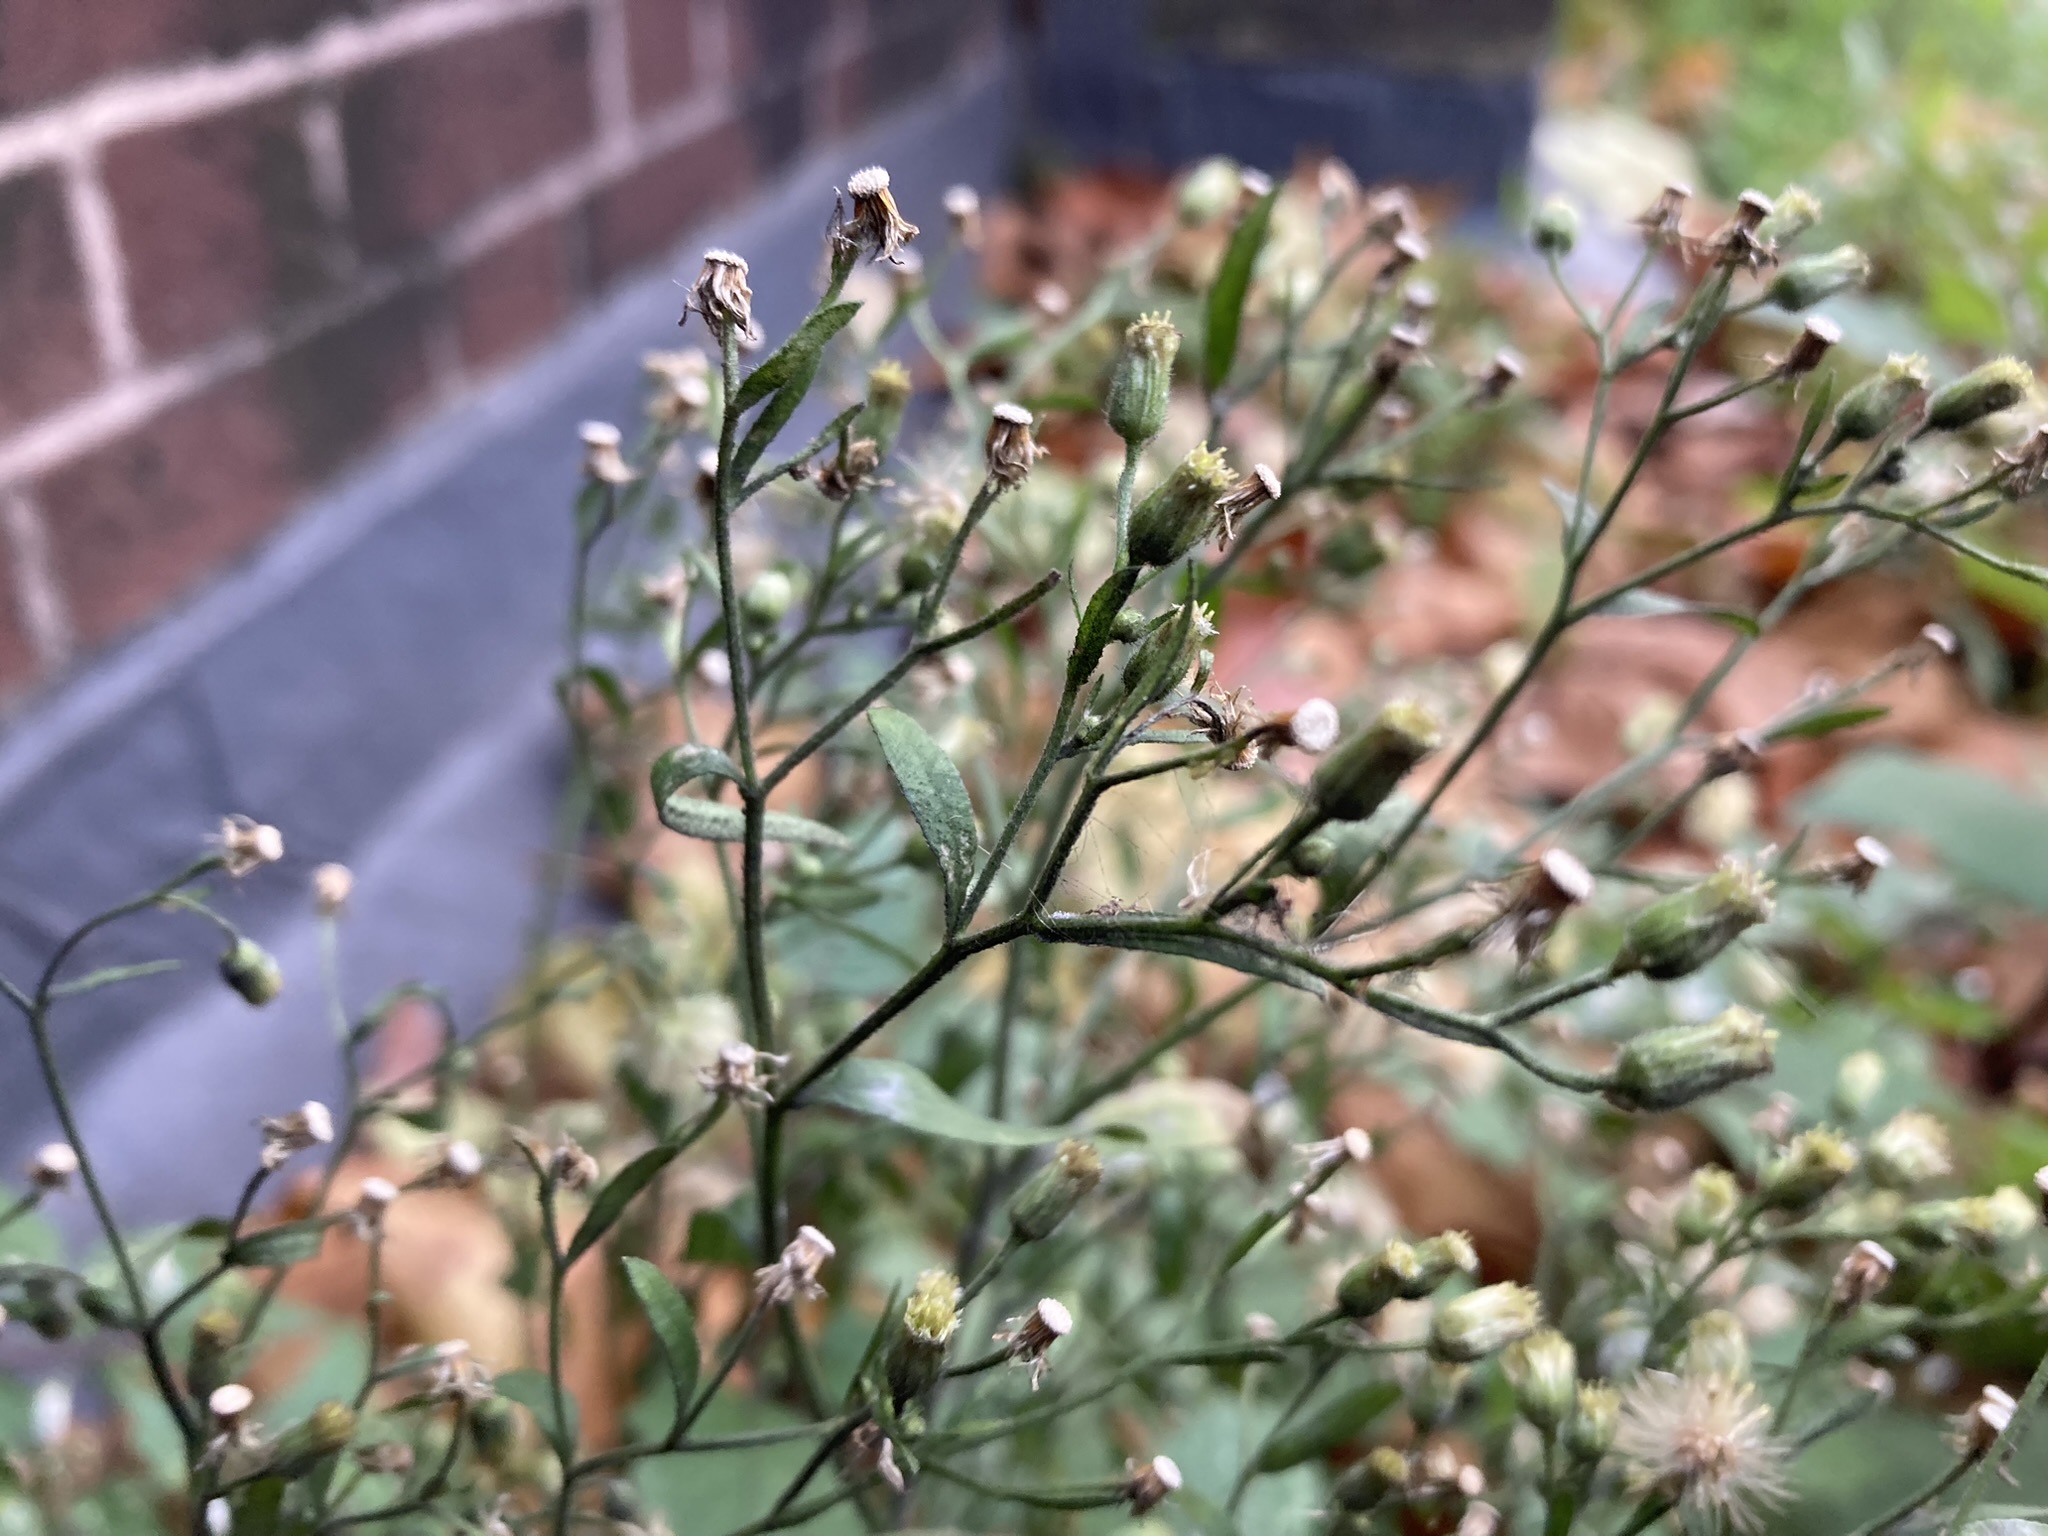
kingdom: Plantae
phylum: Tracheophyta
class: Magnoliopsida
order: Asterales
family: Asteraceae
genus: Erigeron
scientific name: Erigeron sumatrensis
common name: Daisy
